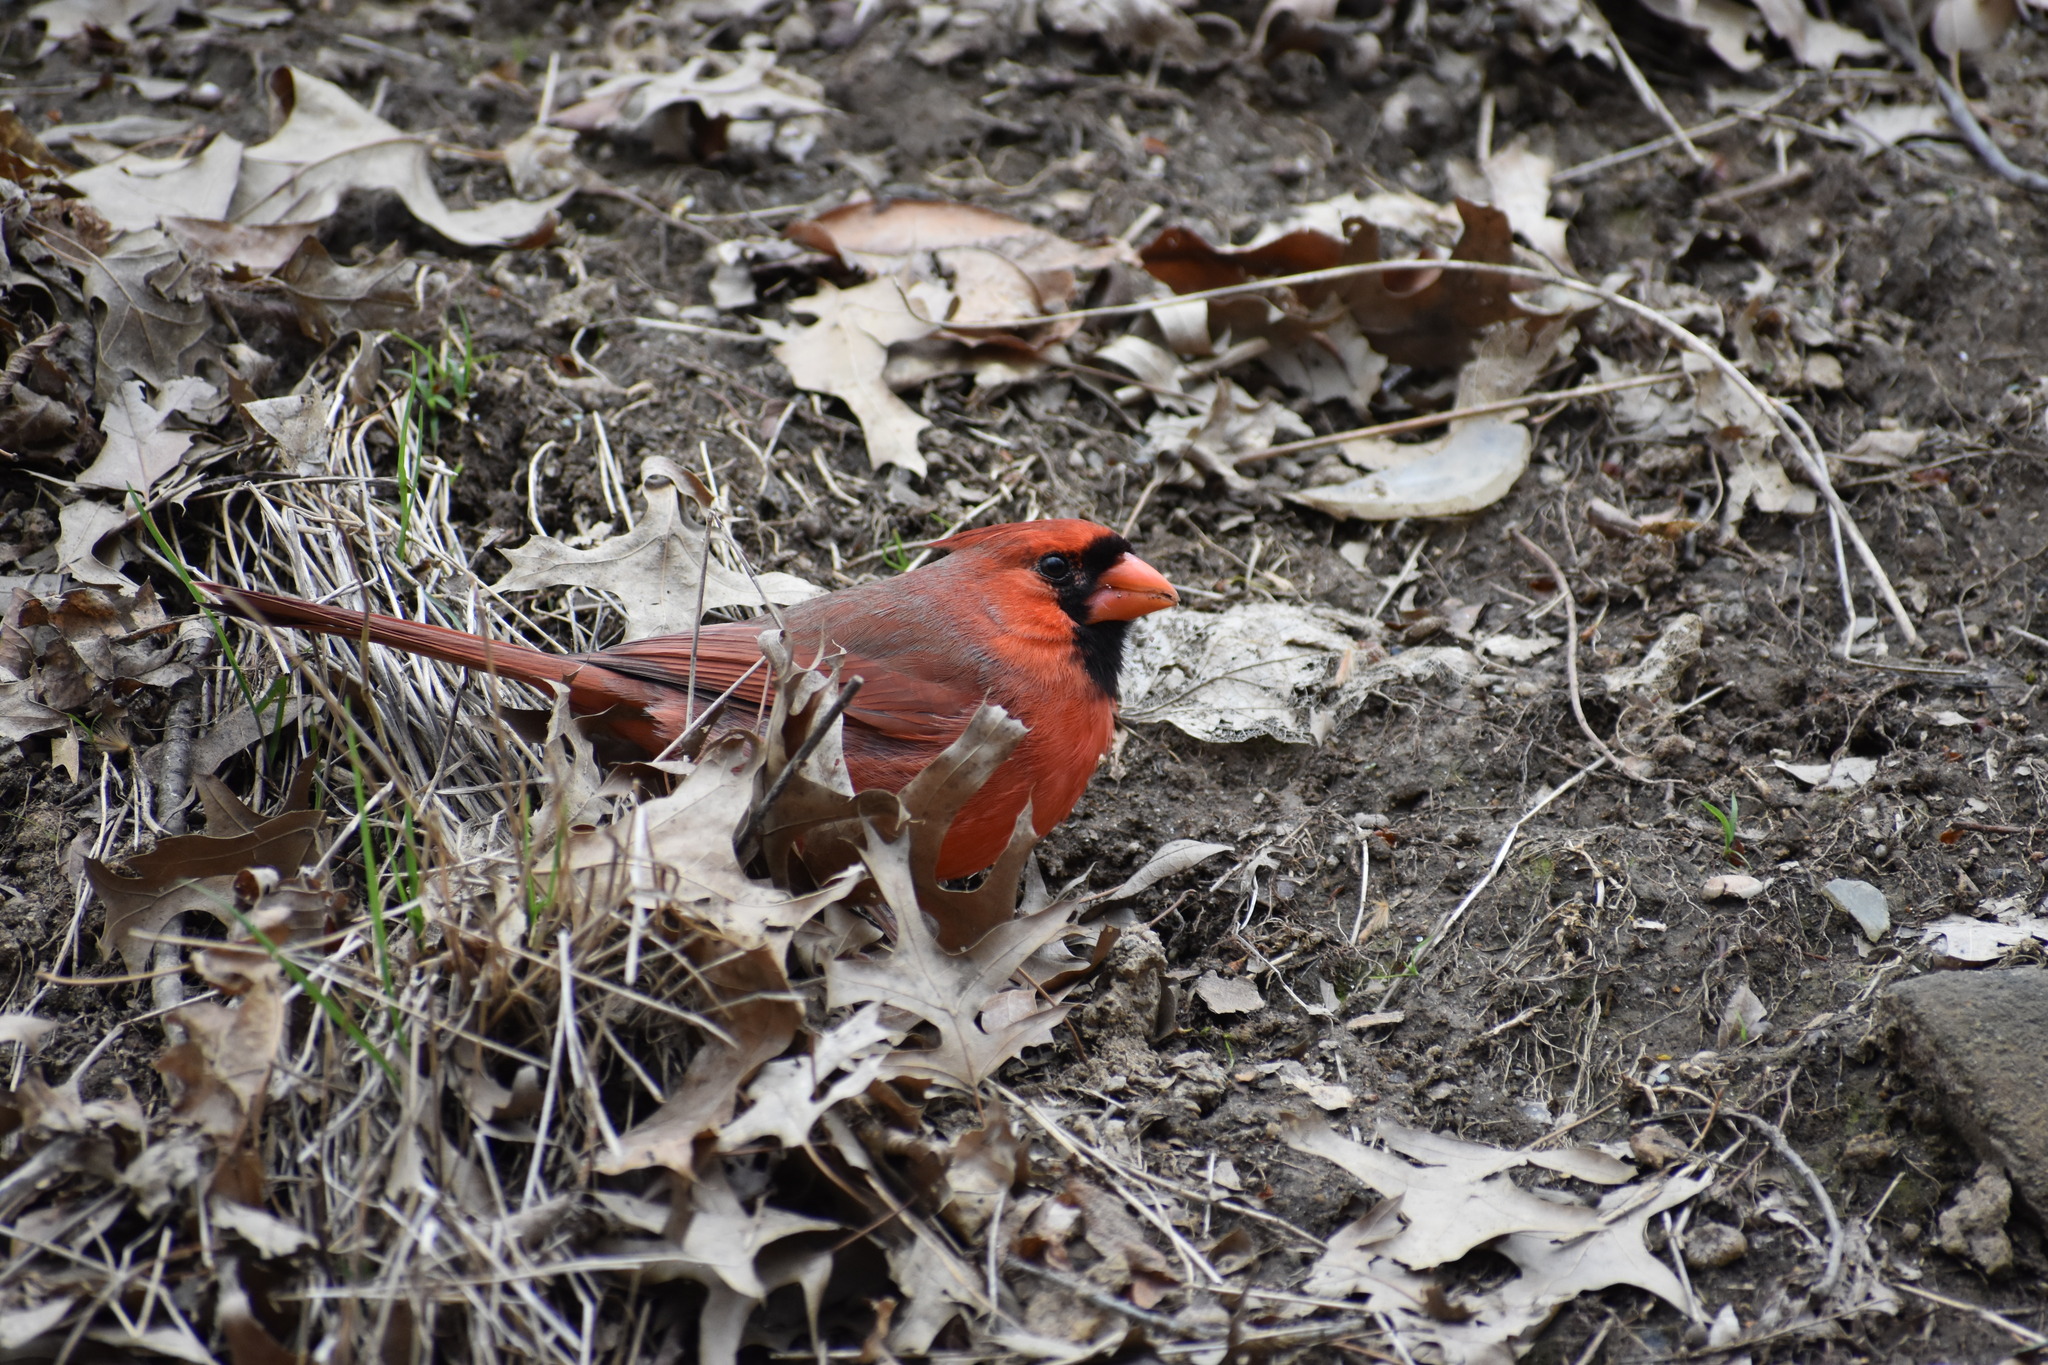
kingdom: Animalia
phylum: Chordata
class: Aves
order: Passeriformes
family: Cardinalidae
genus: Cardinalis
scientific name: Cardinalis cardinalis
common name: Northern cardinal
